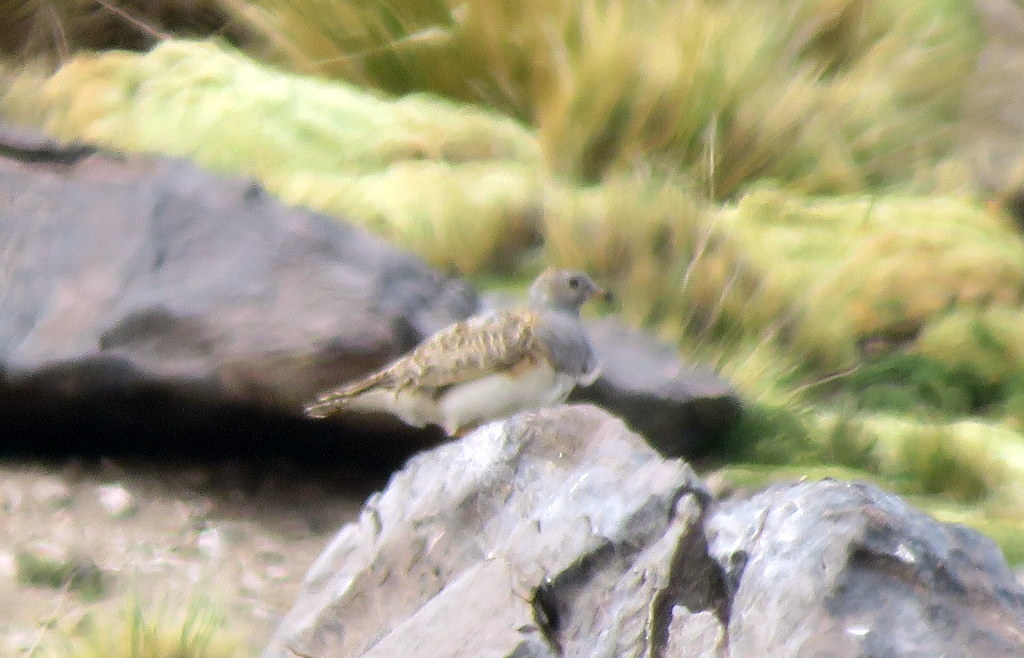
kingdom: Animalia
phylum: Chordata
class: Aves
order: Charadriiformes
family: Thinocoridae
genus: Thinocorus
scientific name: Thinocorus orbignyianus
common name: Grey-breasted seedsnipe
